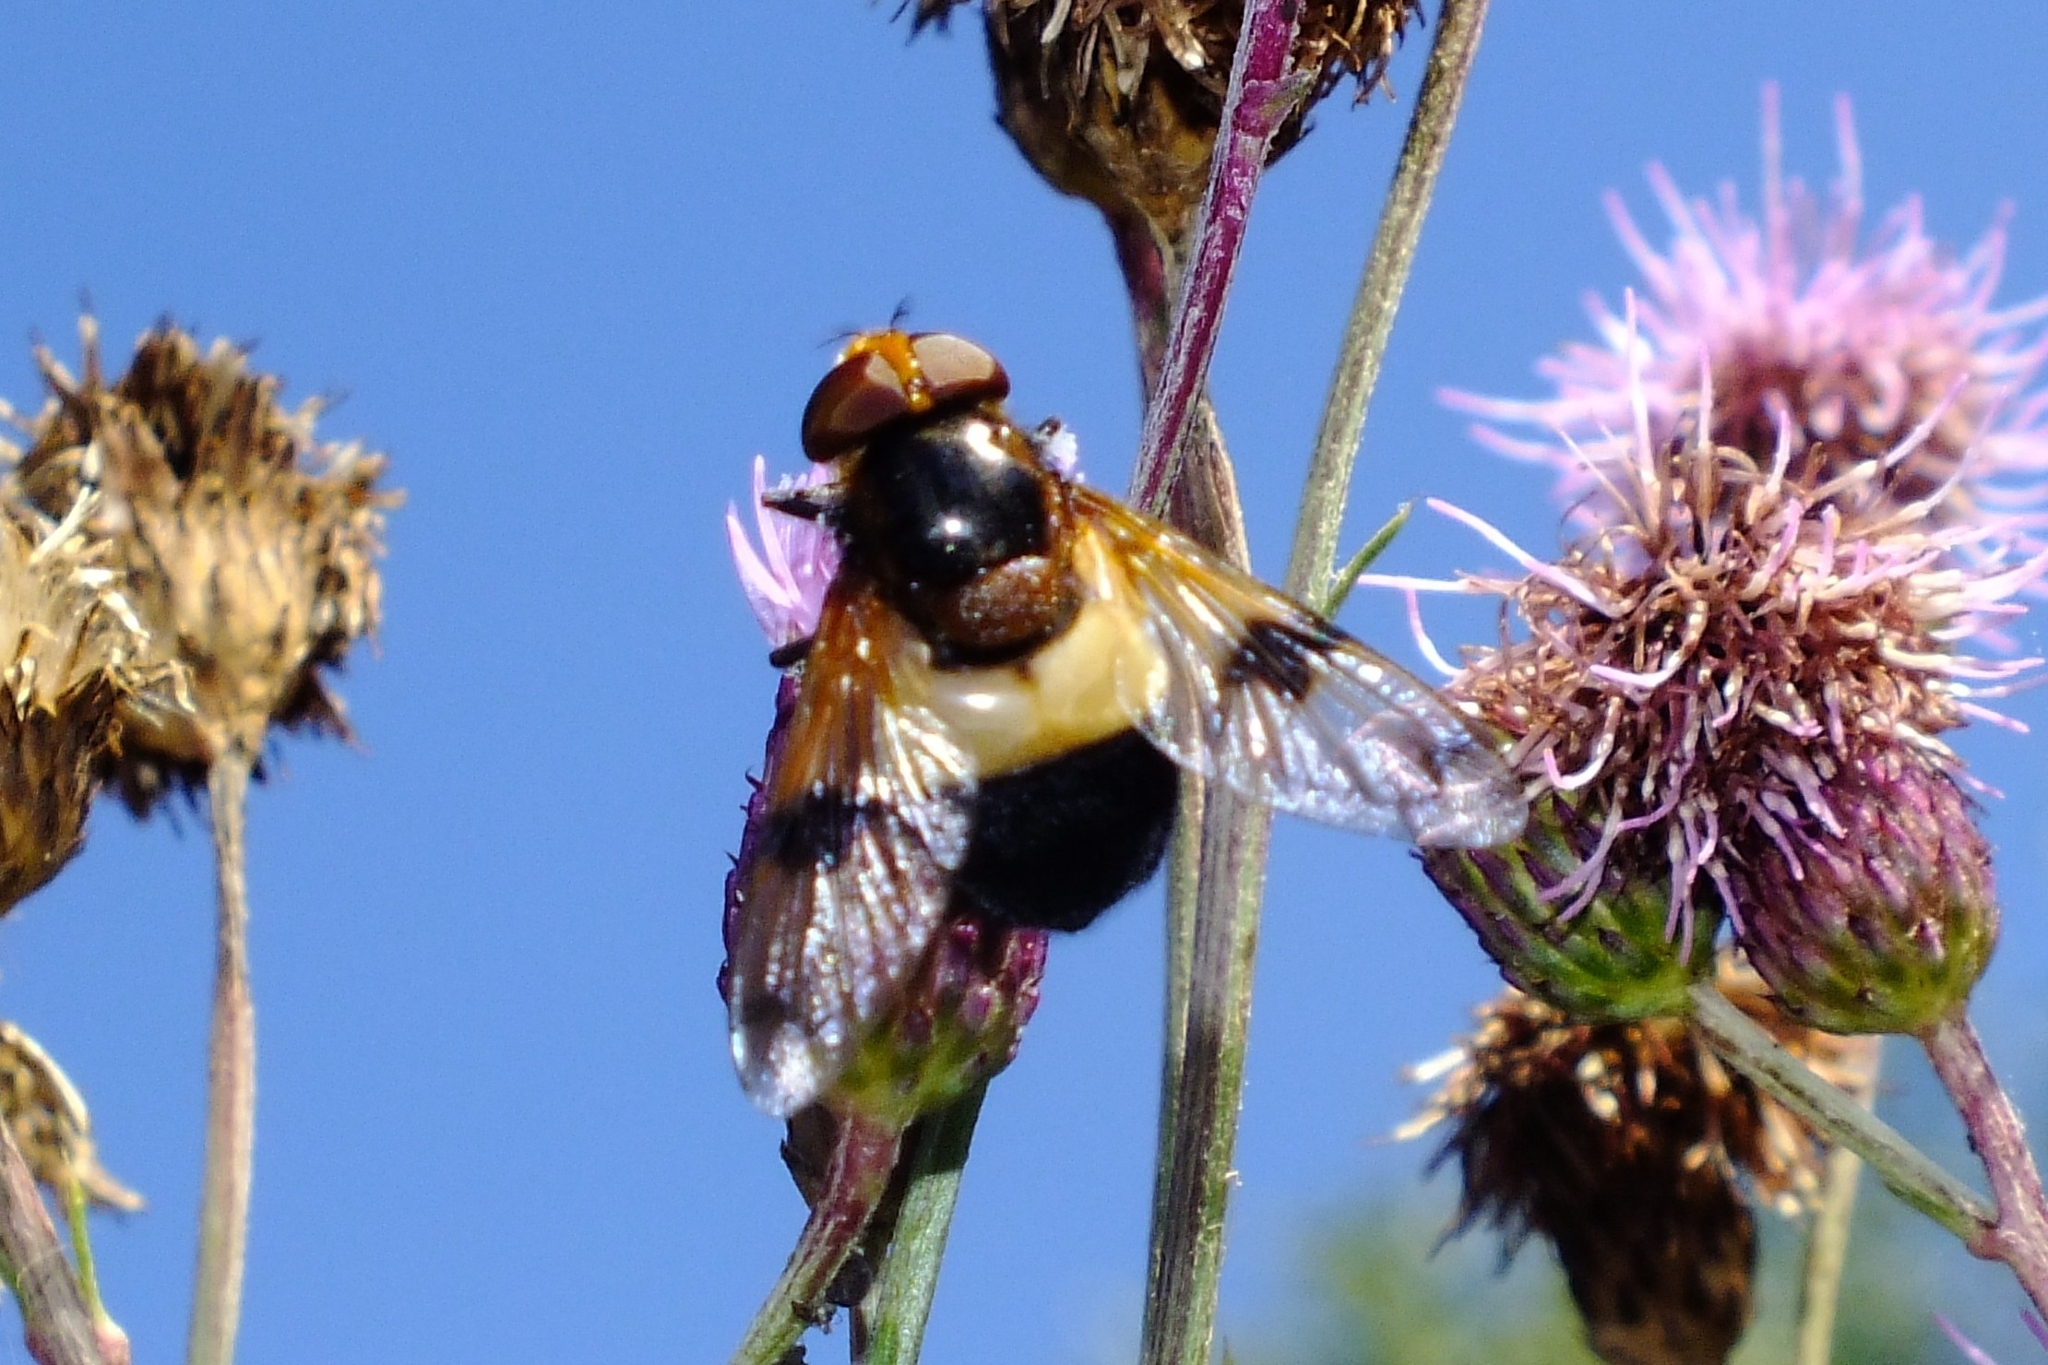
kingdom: Animalia
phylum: Arthropoda
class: Insecta
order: Diptera
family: Syrphidae
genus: Volucella
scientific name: Volucella pellucens
